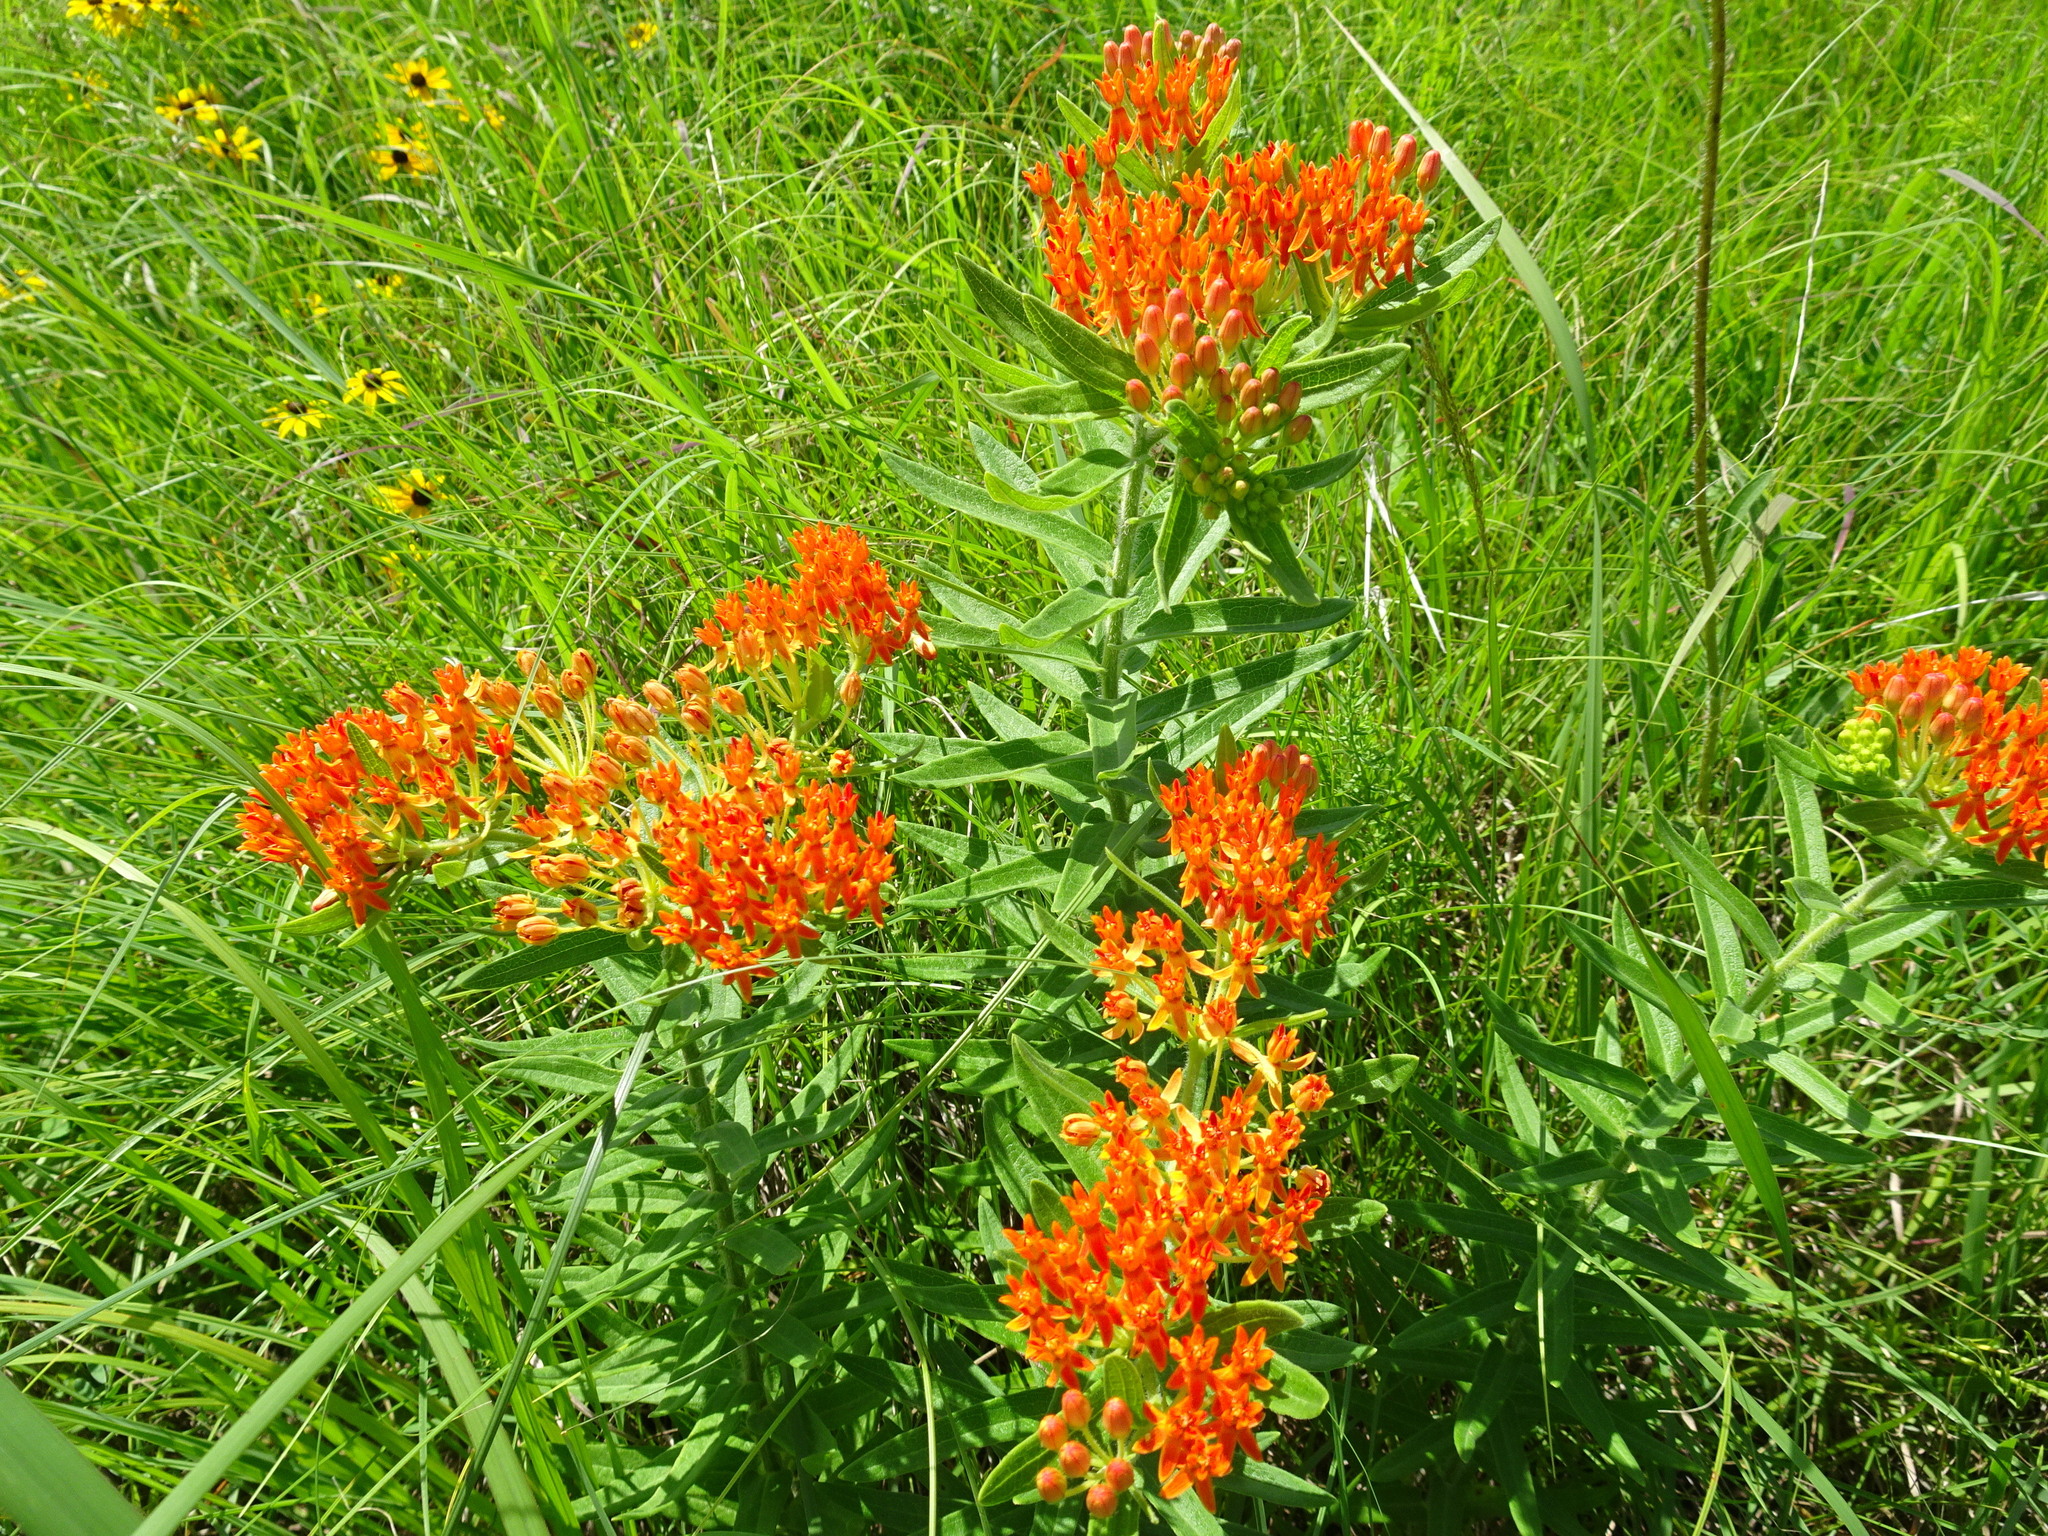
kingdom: Plantae
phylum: Tracheophyta
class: Magnoliopsida
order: Gentianales
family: Apocynaceae
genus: Asclepias
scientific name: Asclepias tuberosa
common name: Butterfly milkweed
